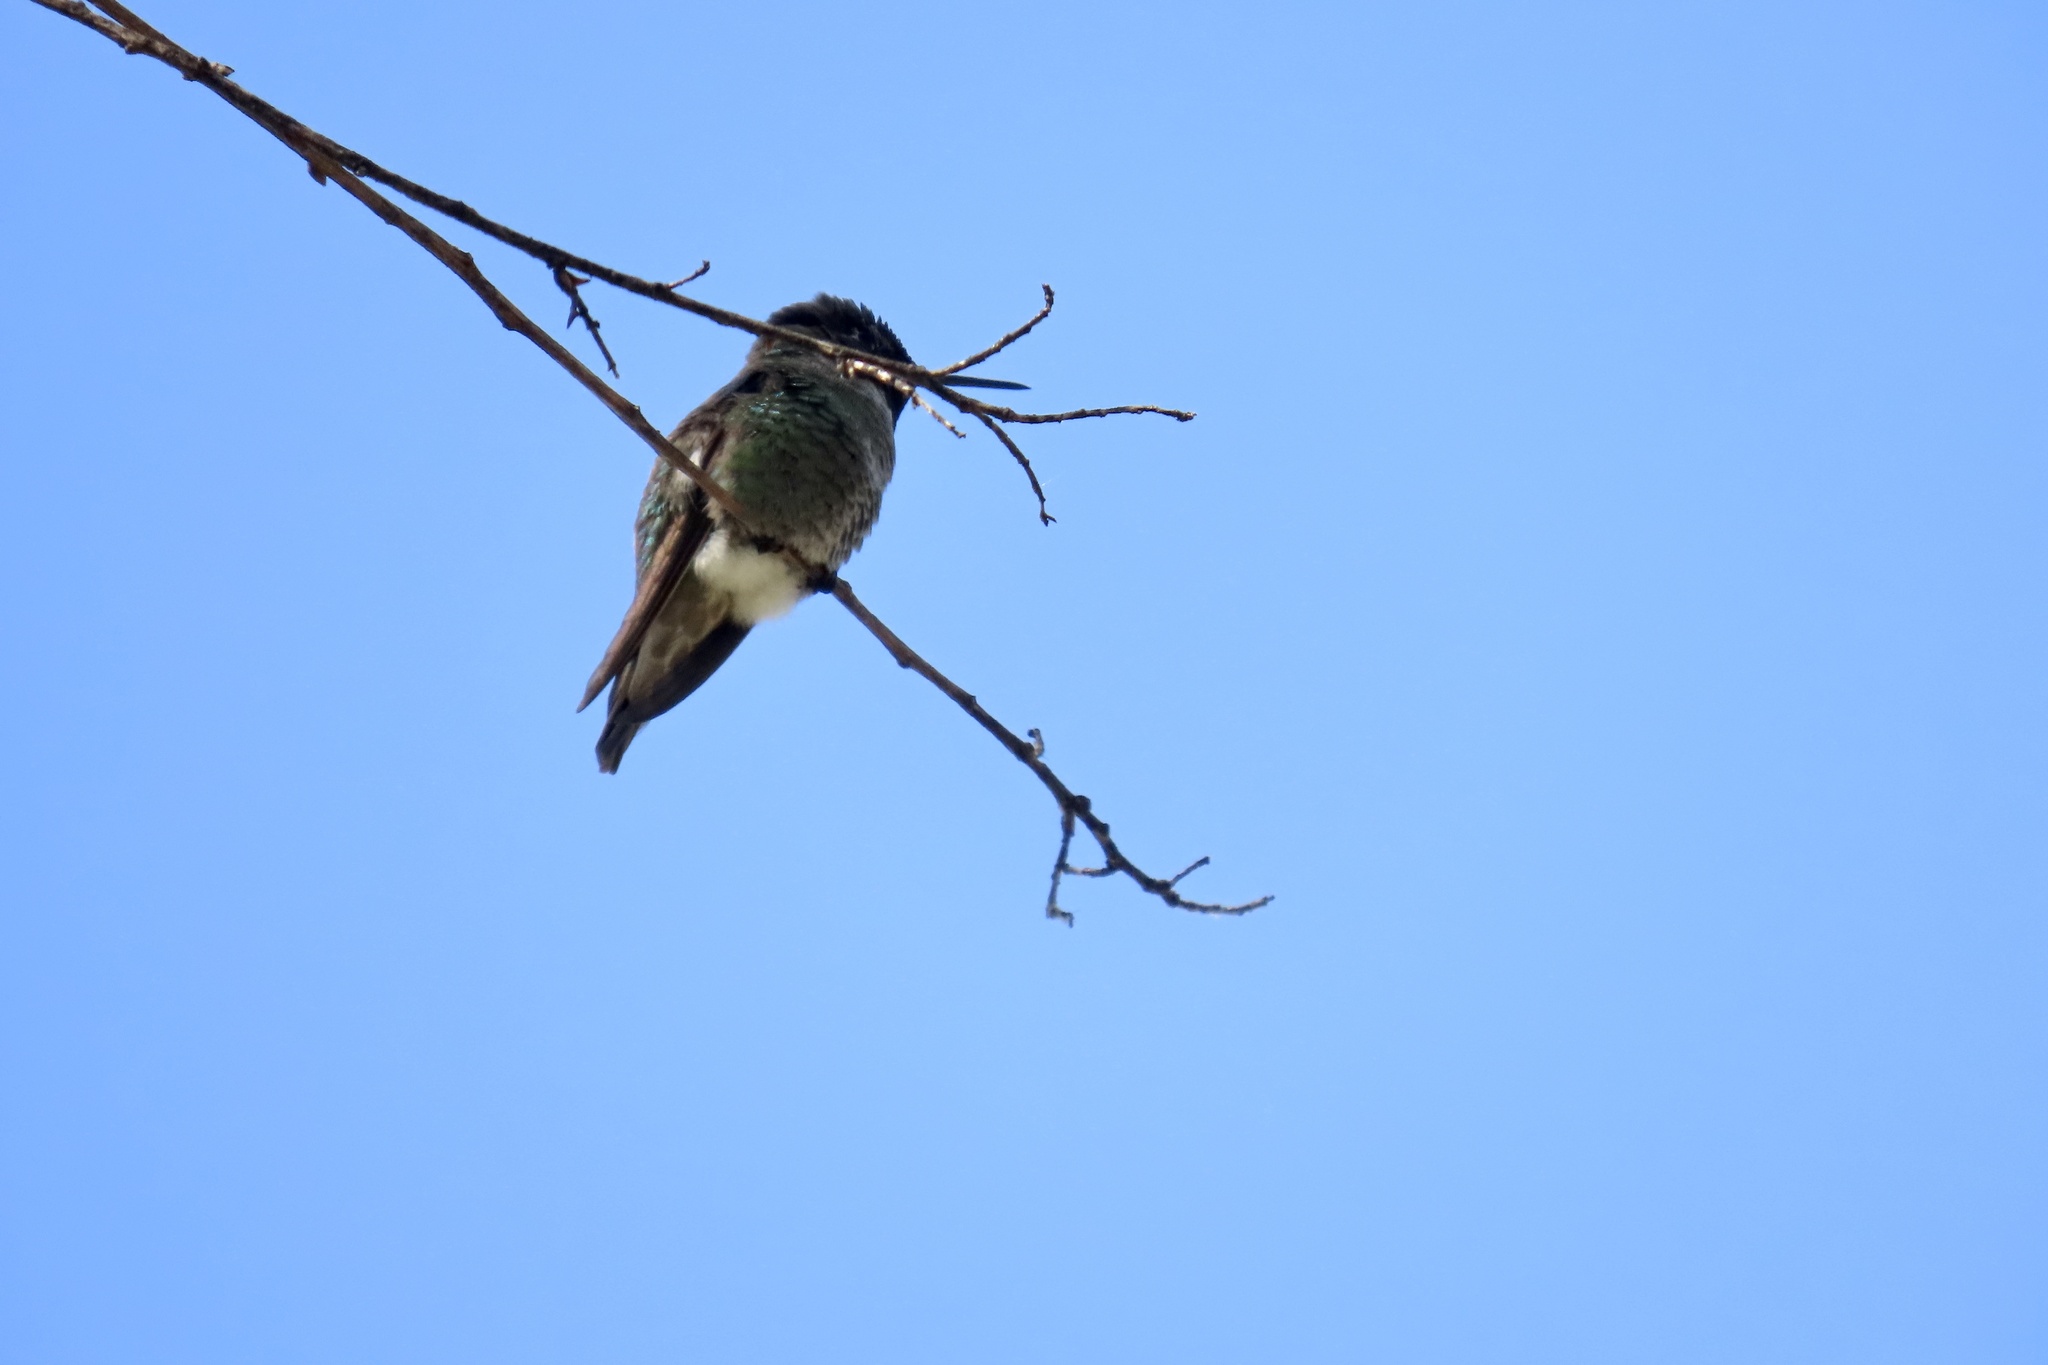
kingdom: Animalia
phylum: Chordata
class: Aves
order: Apodiformes
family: Trochilidae
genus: Calypte
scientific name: Calypte anna
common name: Anna's hummingbird
